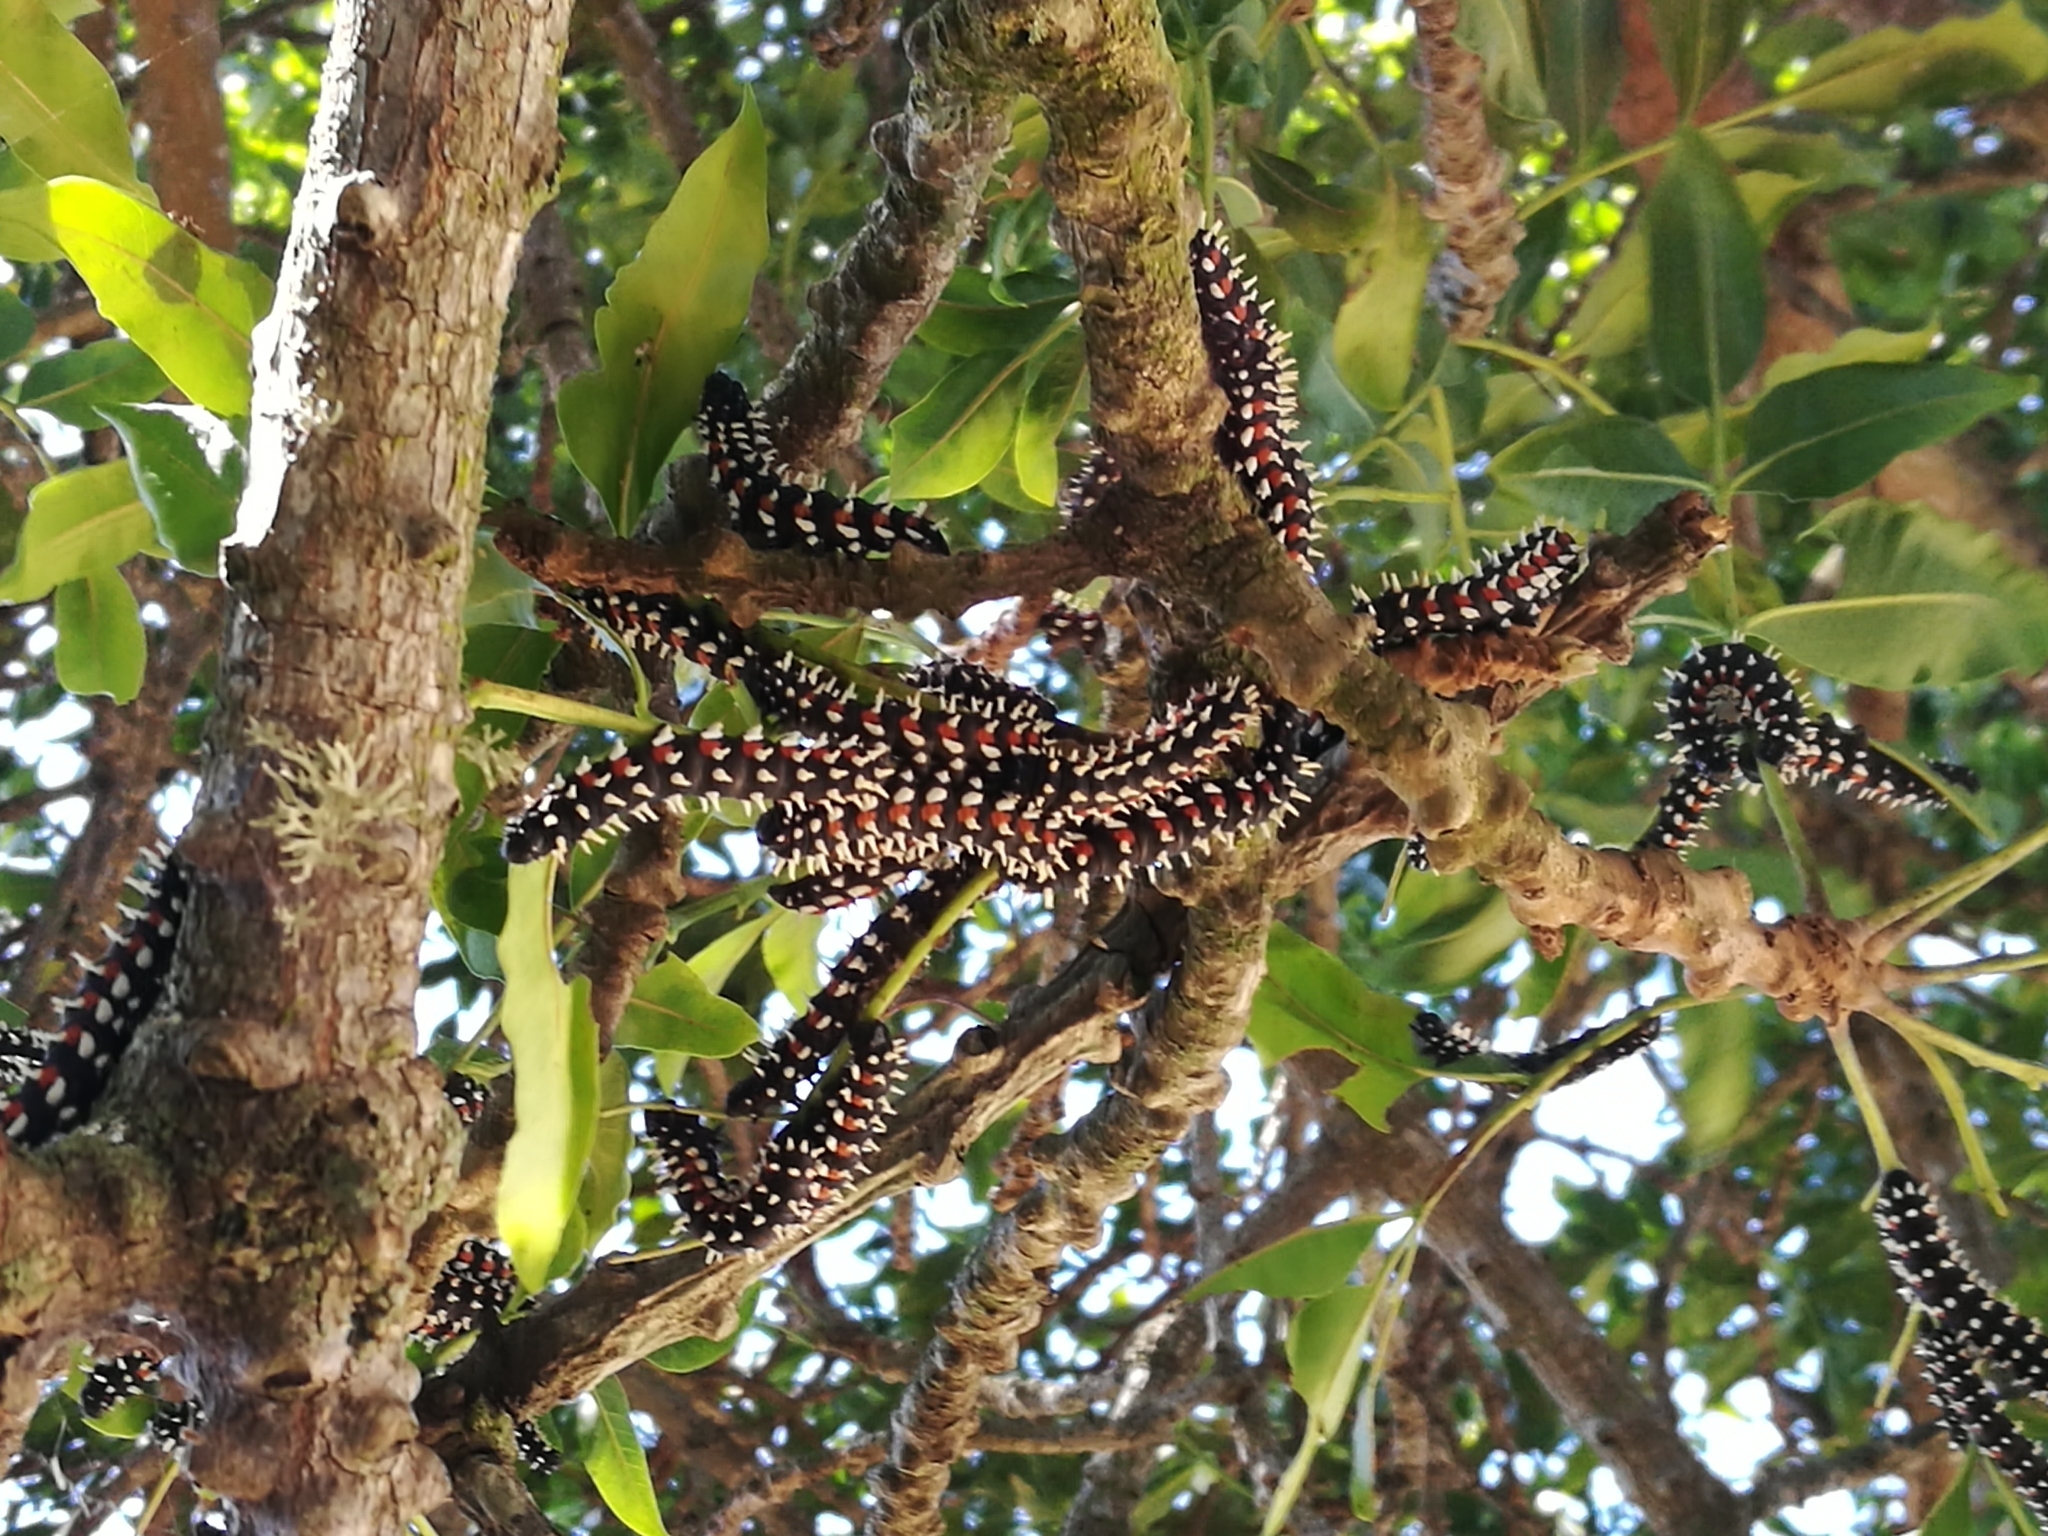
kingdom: Animalia
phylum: Arthropoda
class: Insecta
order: Lepidoptera
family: Saturniidae
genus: Bunaea
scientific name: Bunaea alcinoe
